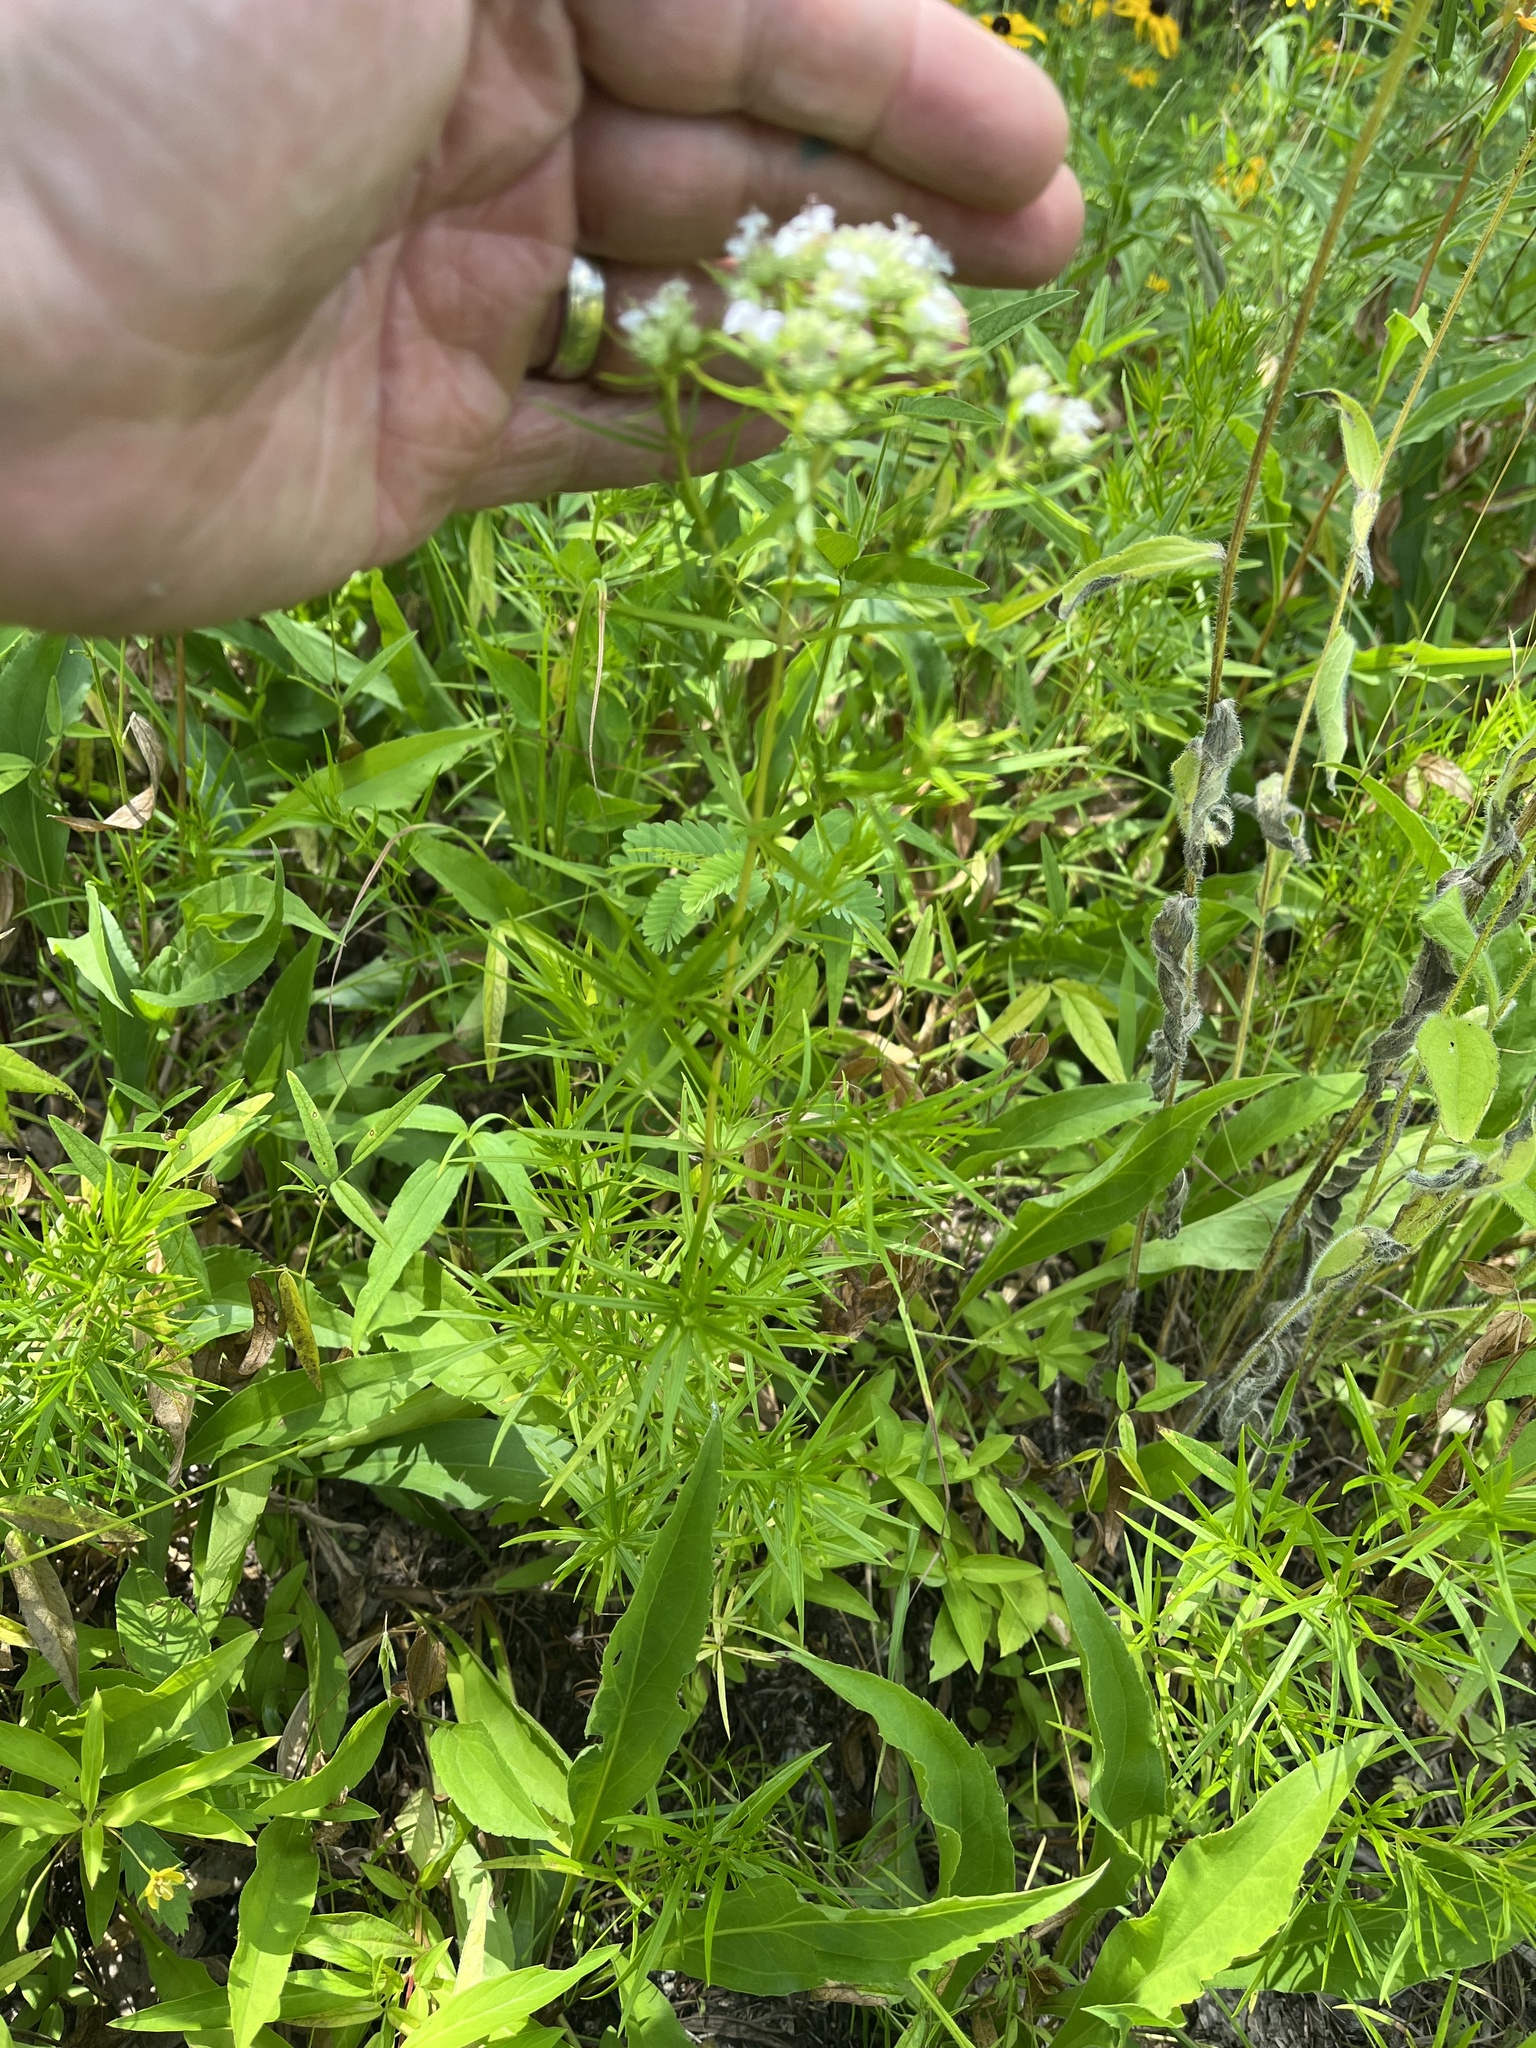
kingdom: Plantae
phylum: Tracheophyta
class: Magnoliopsida
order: Lamiales
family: Lamiaceae
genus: Pycnanthemum
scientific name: Pycnanthemum tenuifolium
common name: Narrow-leaf mountain-mint
